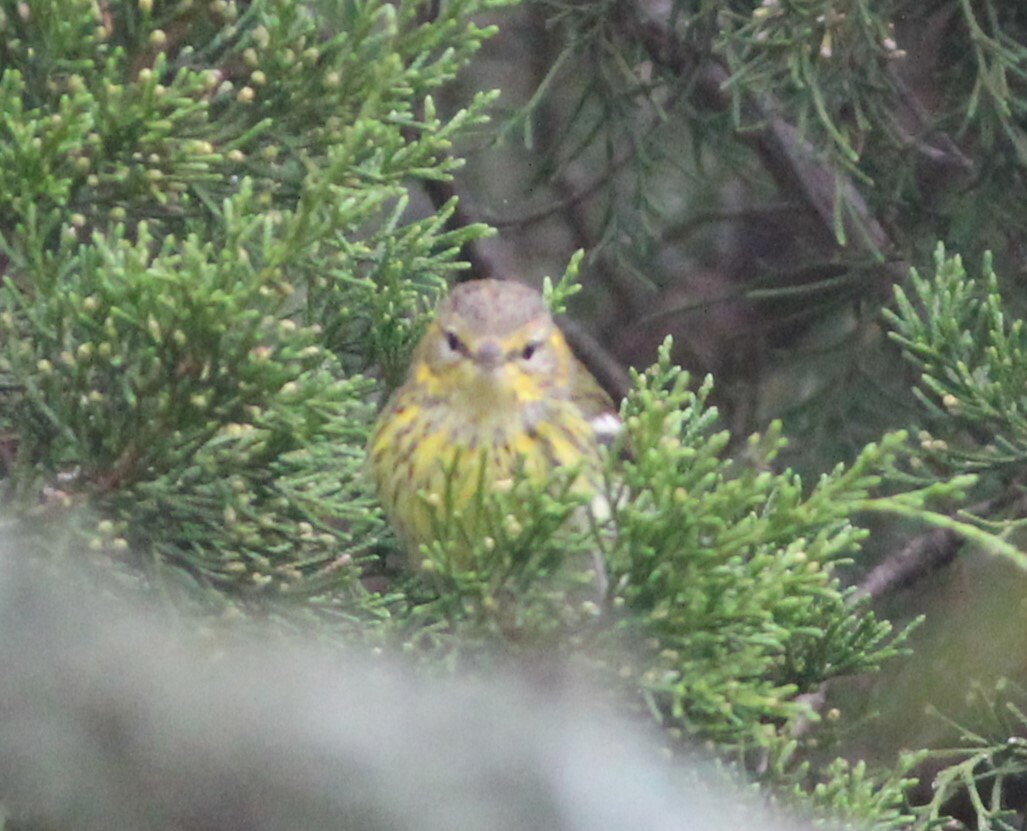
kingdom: Animalia
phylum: Chordata
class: Aves
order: Passeriformes
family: Parulidae
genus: Setophaga
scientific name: Setophaga tigrina
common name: Cape may warbler
